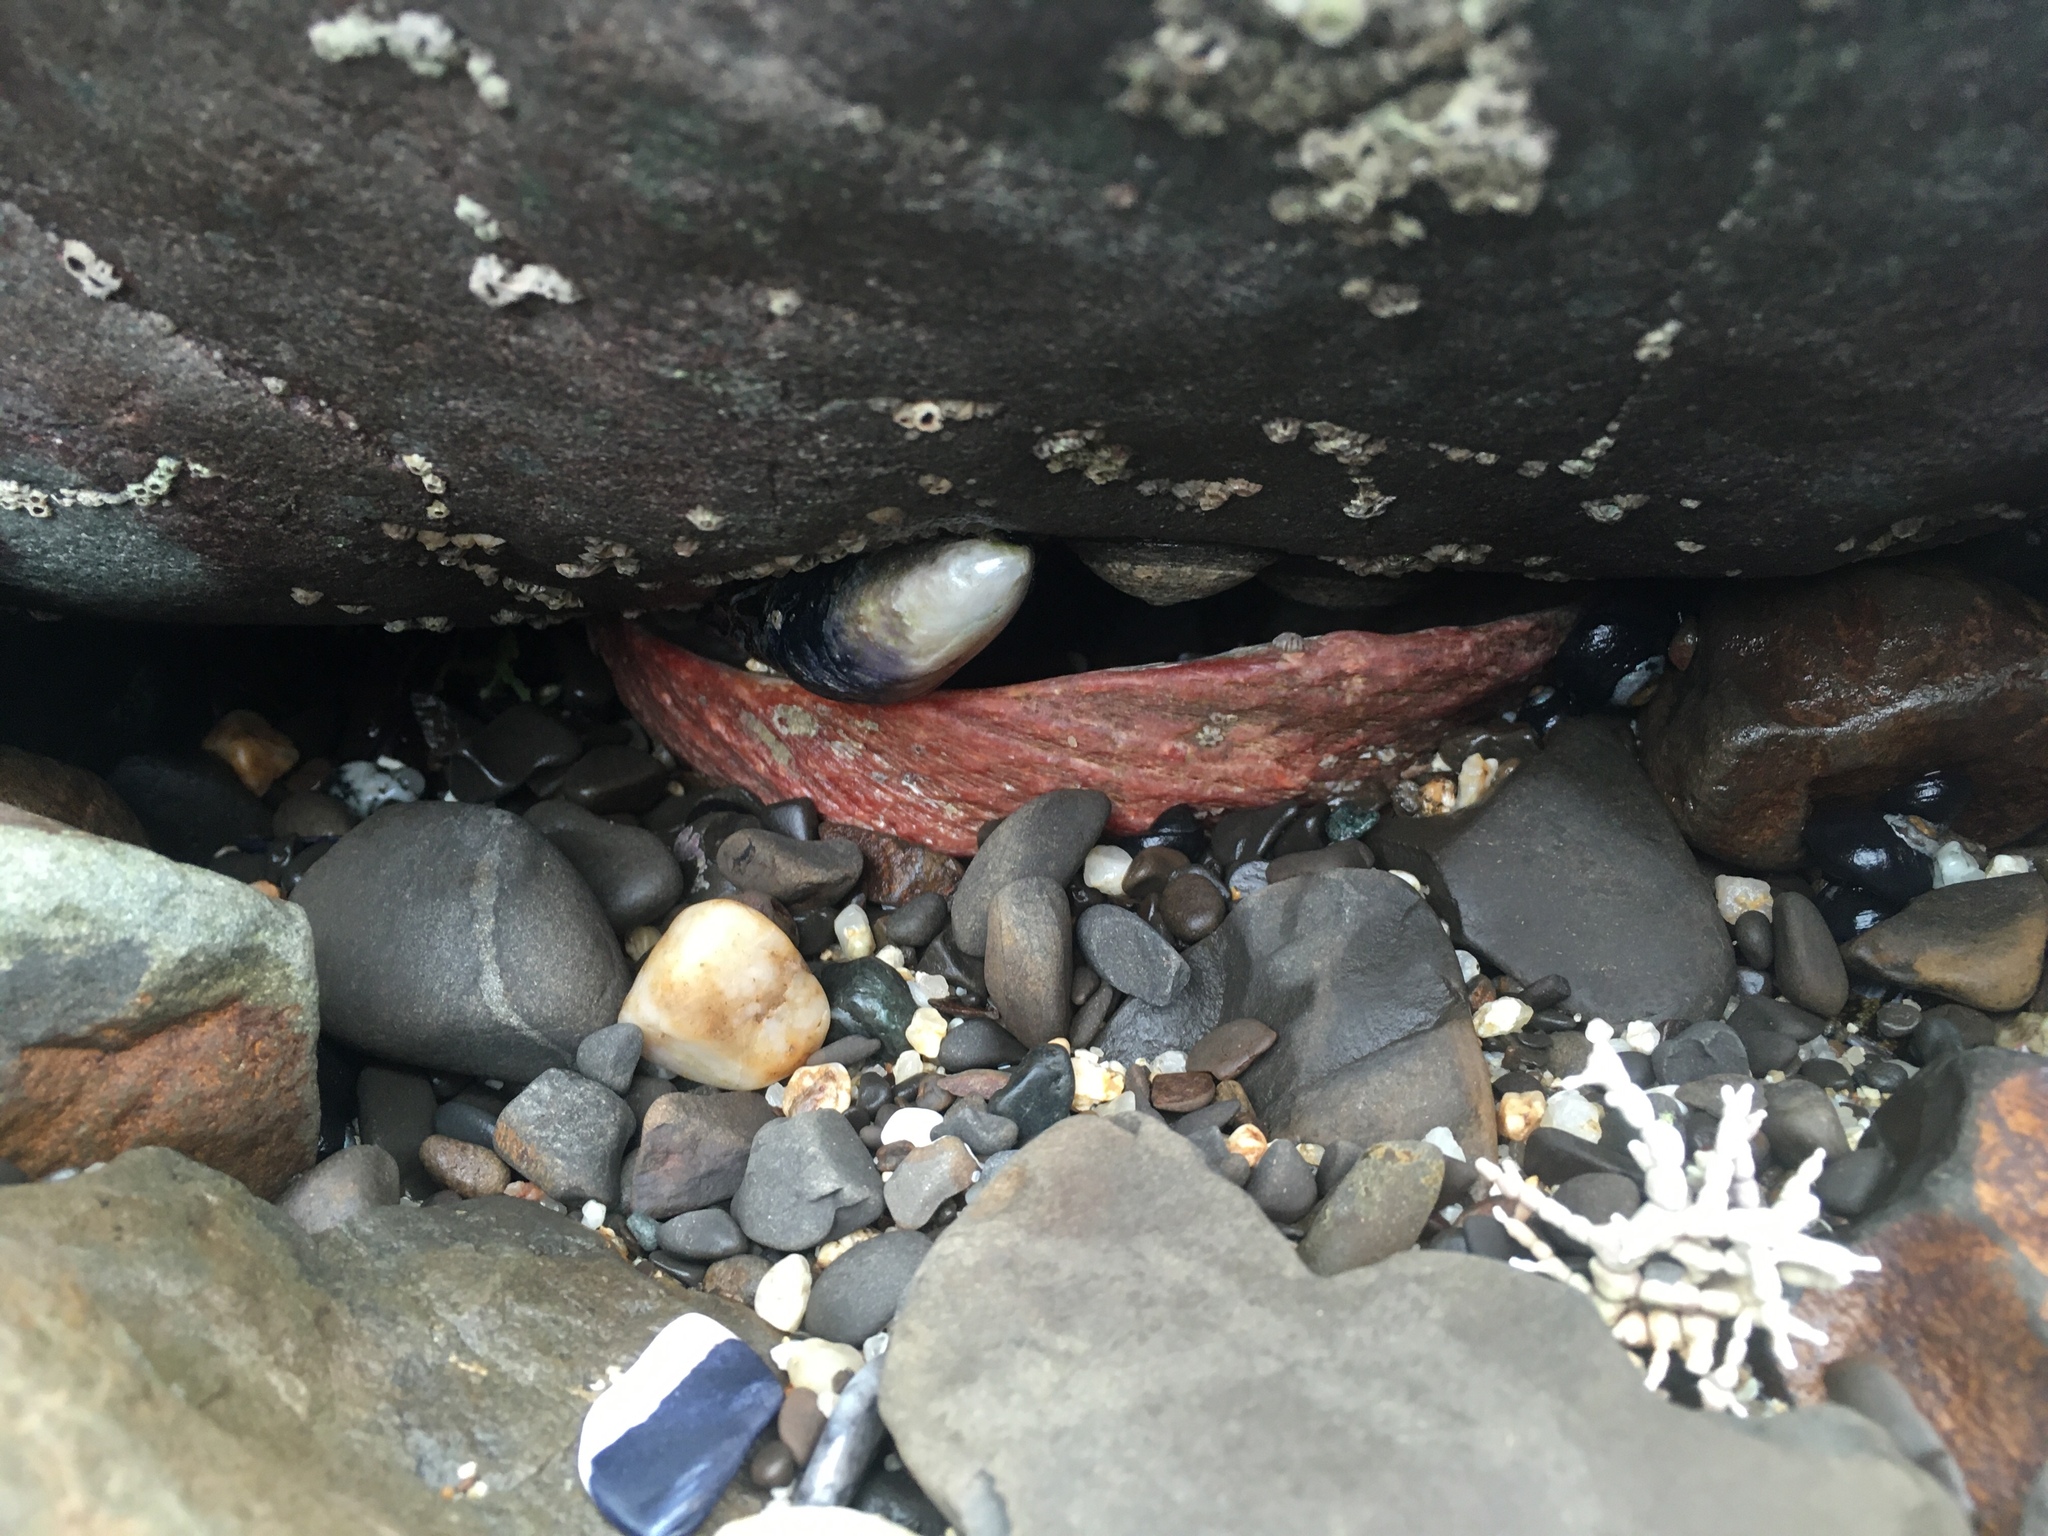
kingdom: Animalia
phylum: Mollusca
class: Gastropoda
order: Lepetellida
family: Haliotidae
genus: Haliotis
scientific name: Haliotis rufescens
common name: Red abalone
